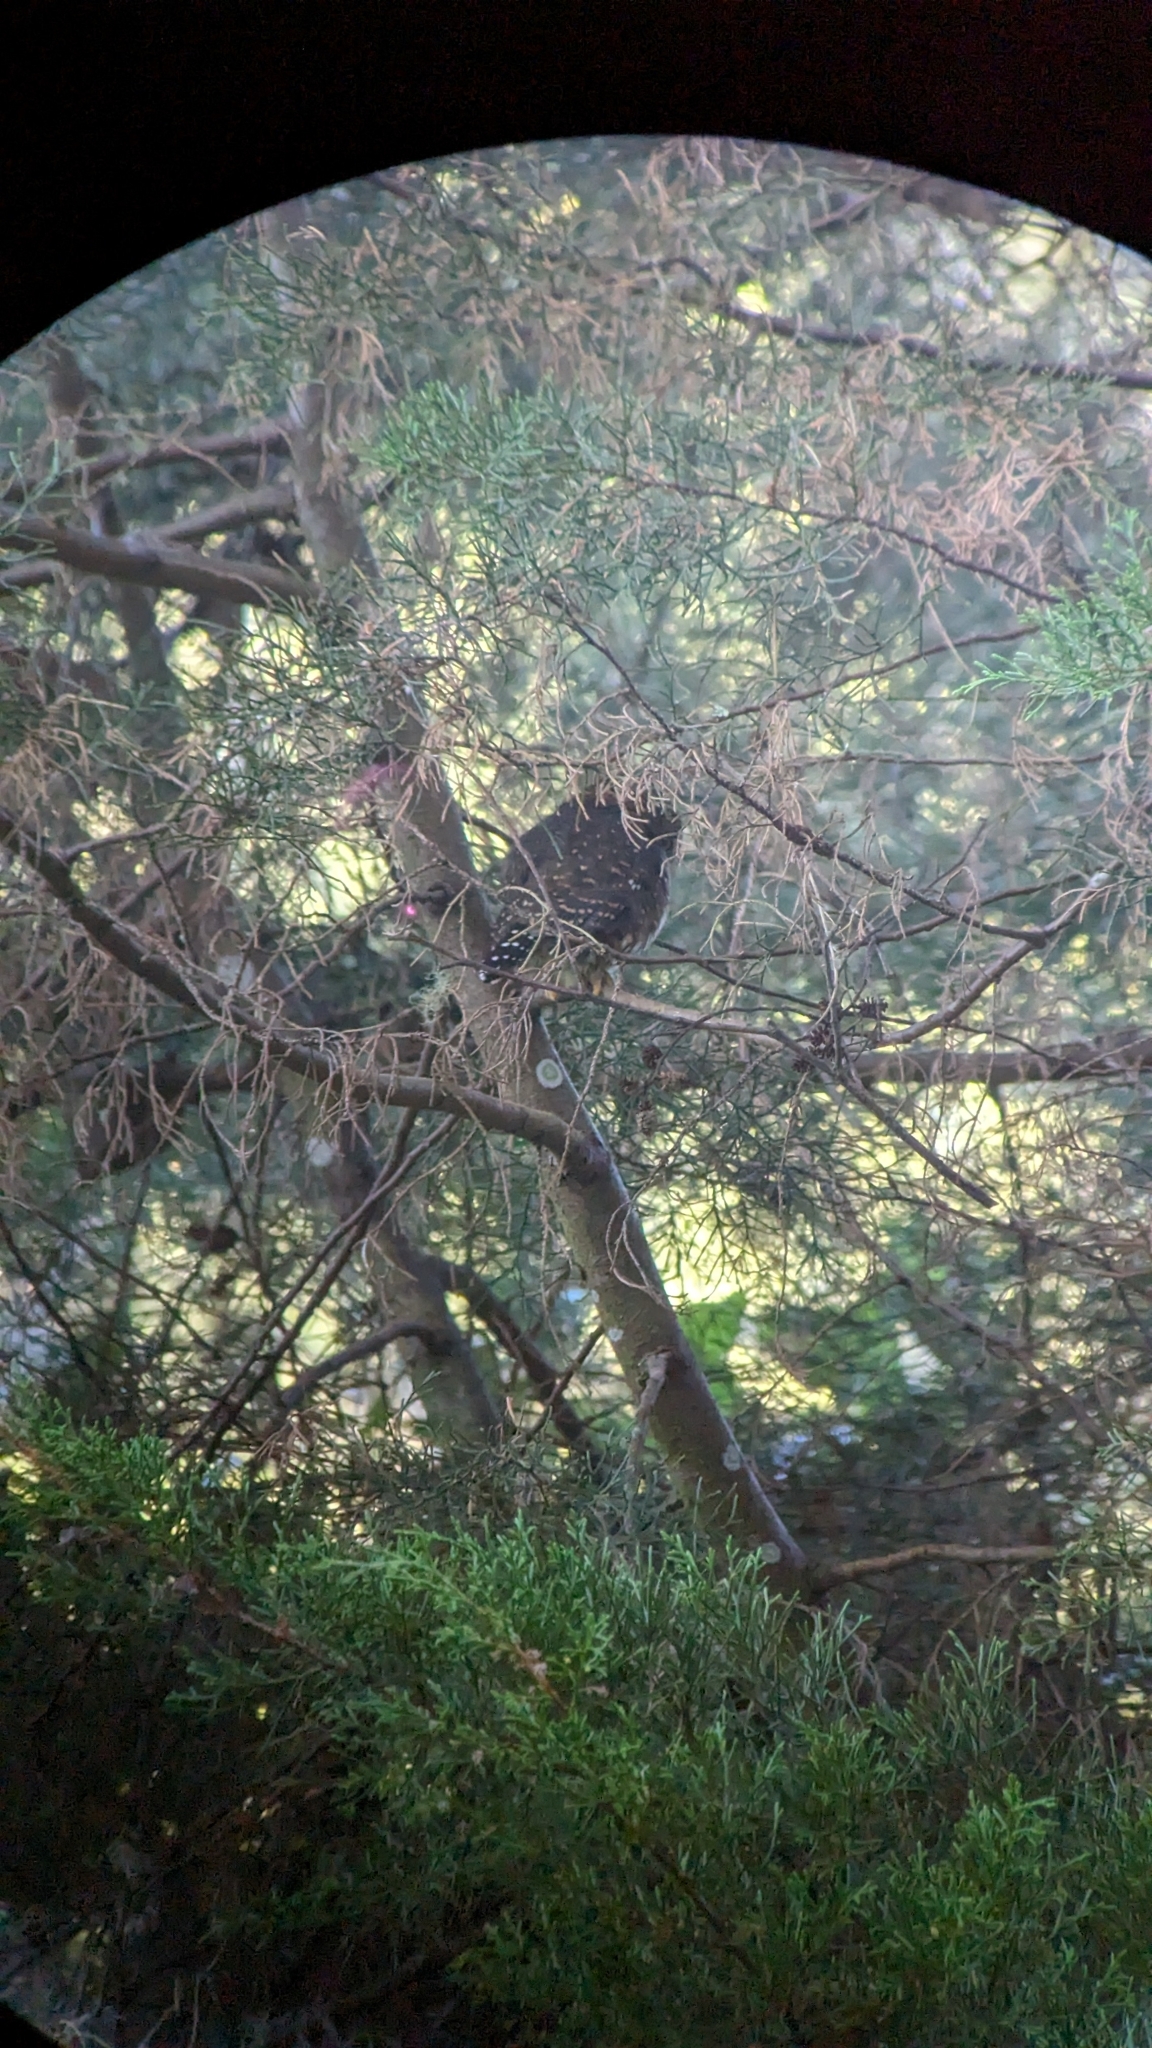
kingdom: Animalia
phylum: Chordata
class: Aves
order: Strigiformes
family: Strigidae
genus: Glaucidium
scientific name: Glaucidium costaricanum
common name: Costa rican pygmy-owl
